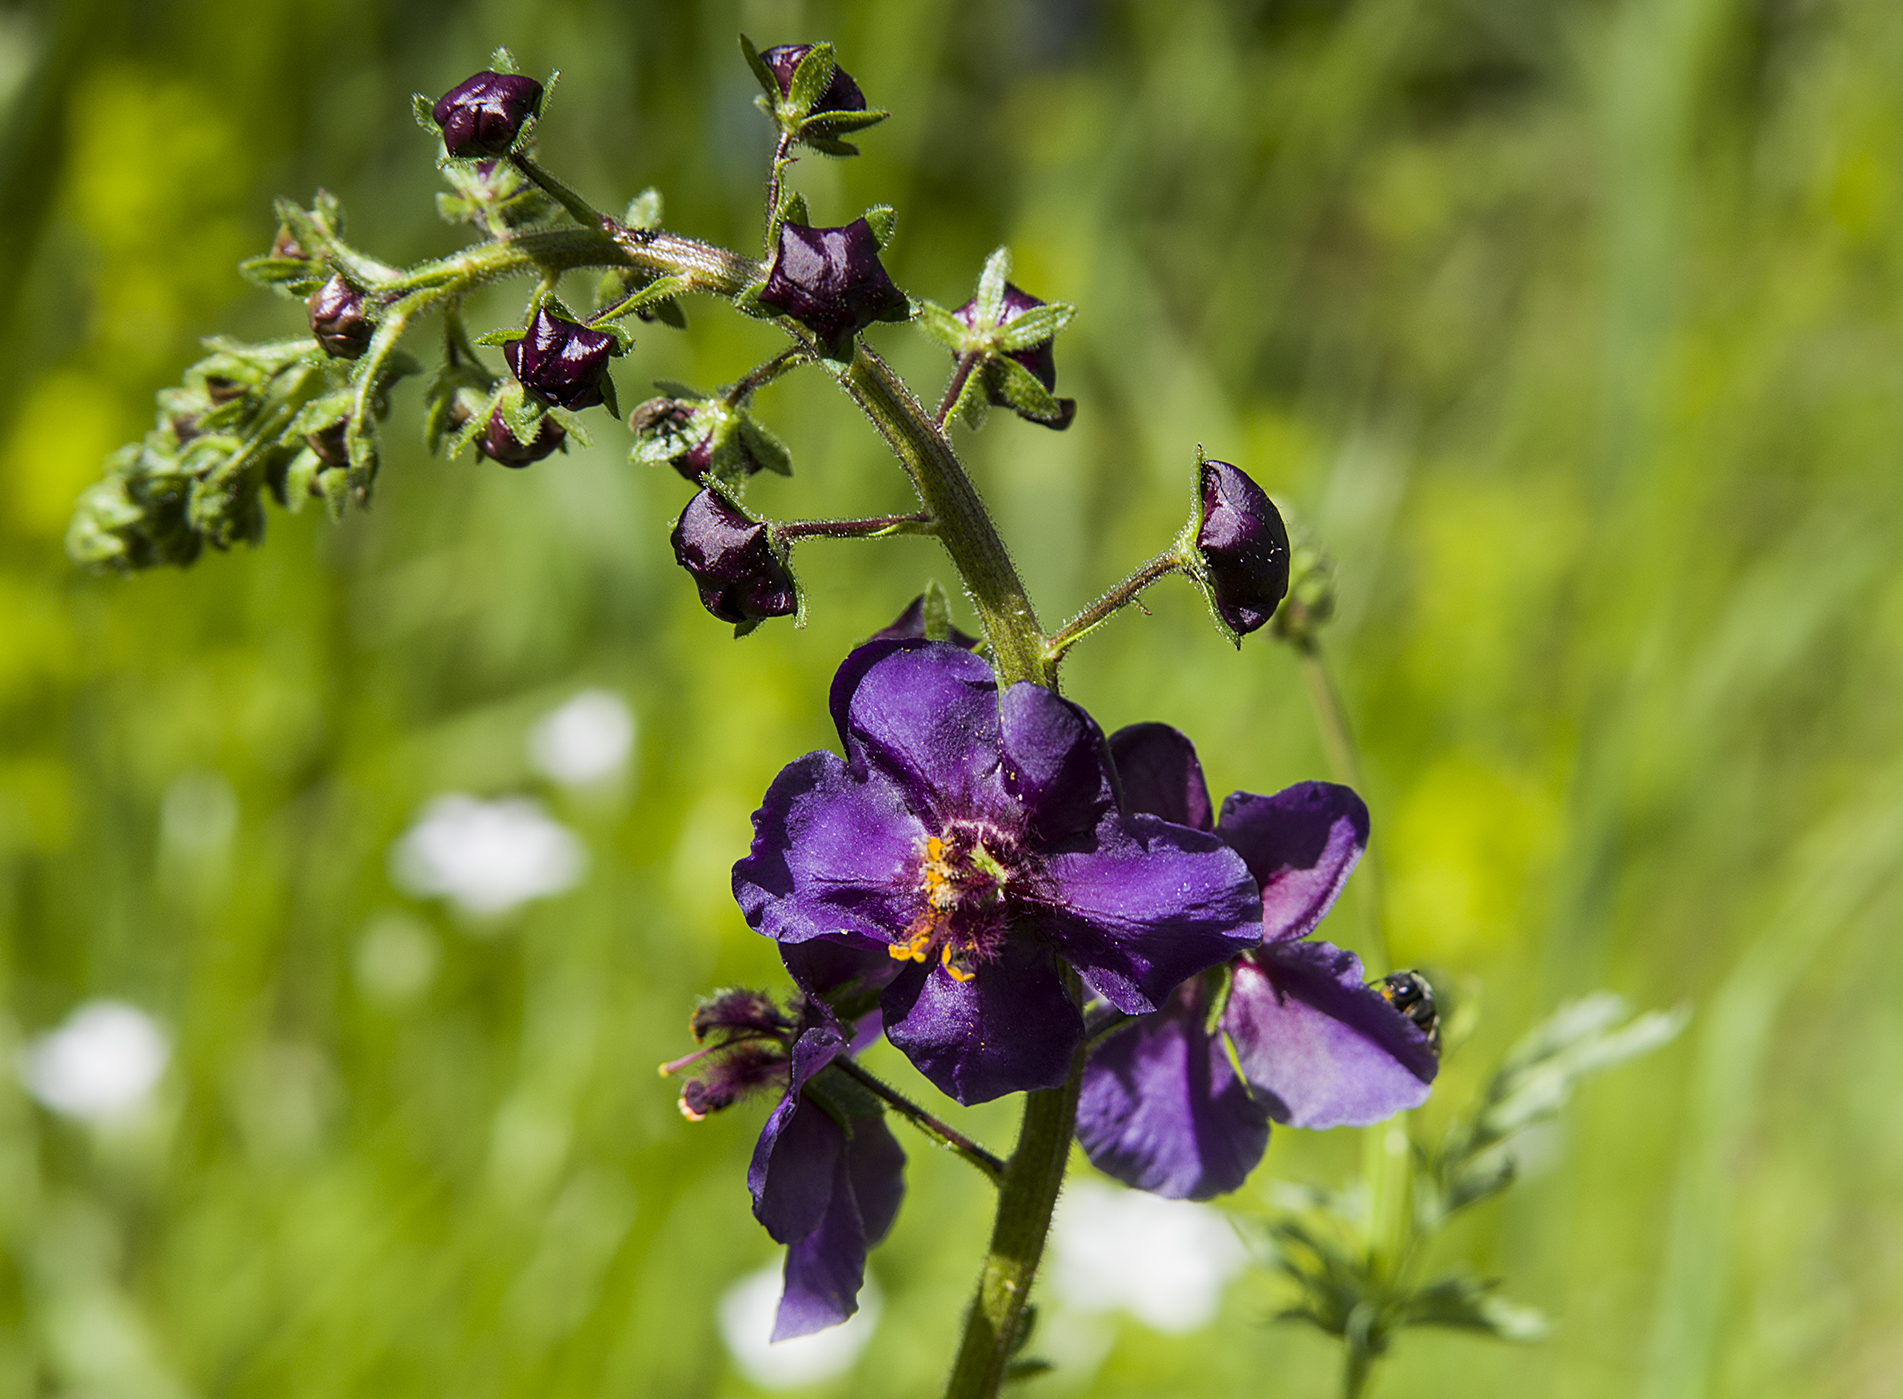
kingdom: Plantae
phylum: Tracheophyta
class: Magnoliopsida
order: Lamiales
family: Scrophulariaceae
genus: Verbascum
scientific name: Verbascum phoeniceum
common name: Purple mullein
